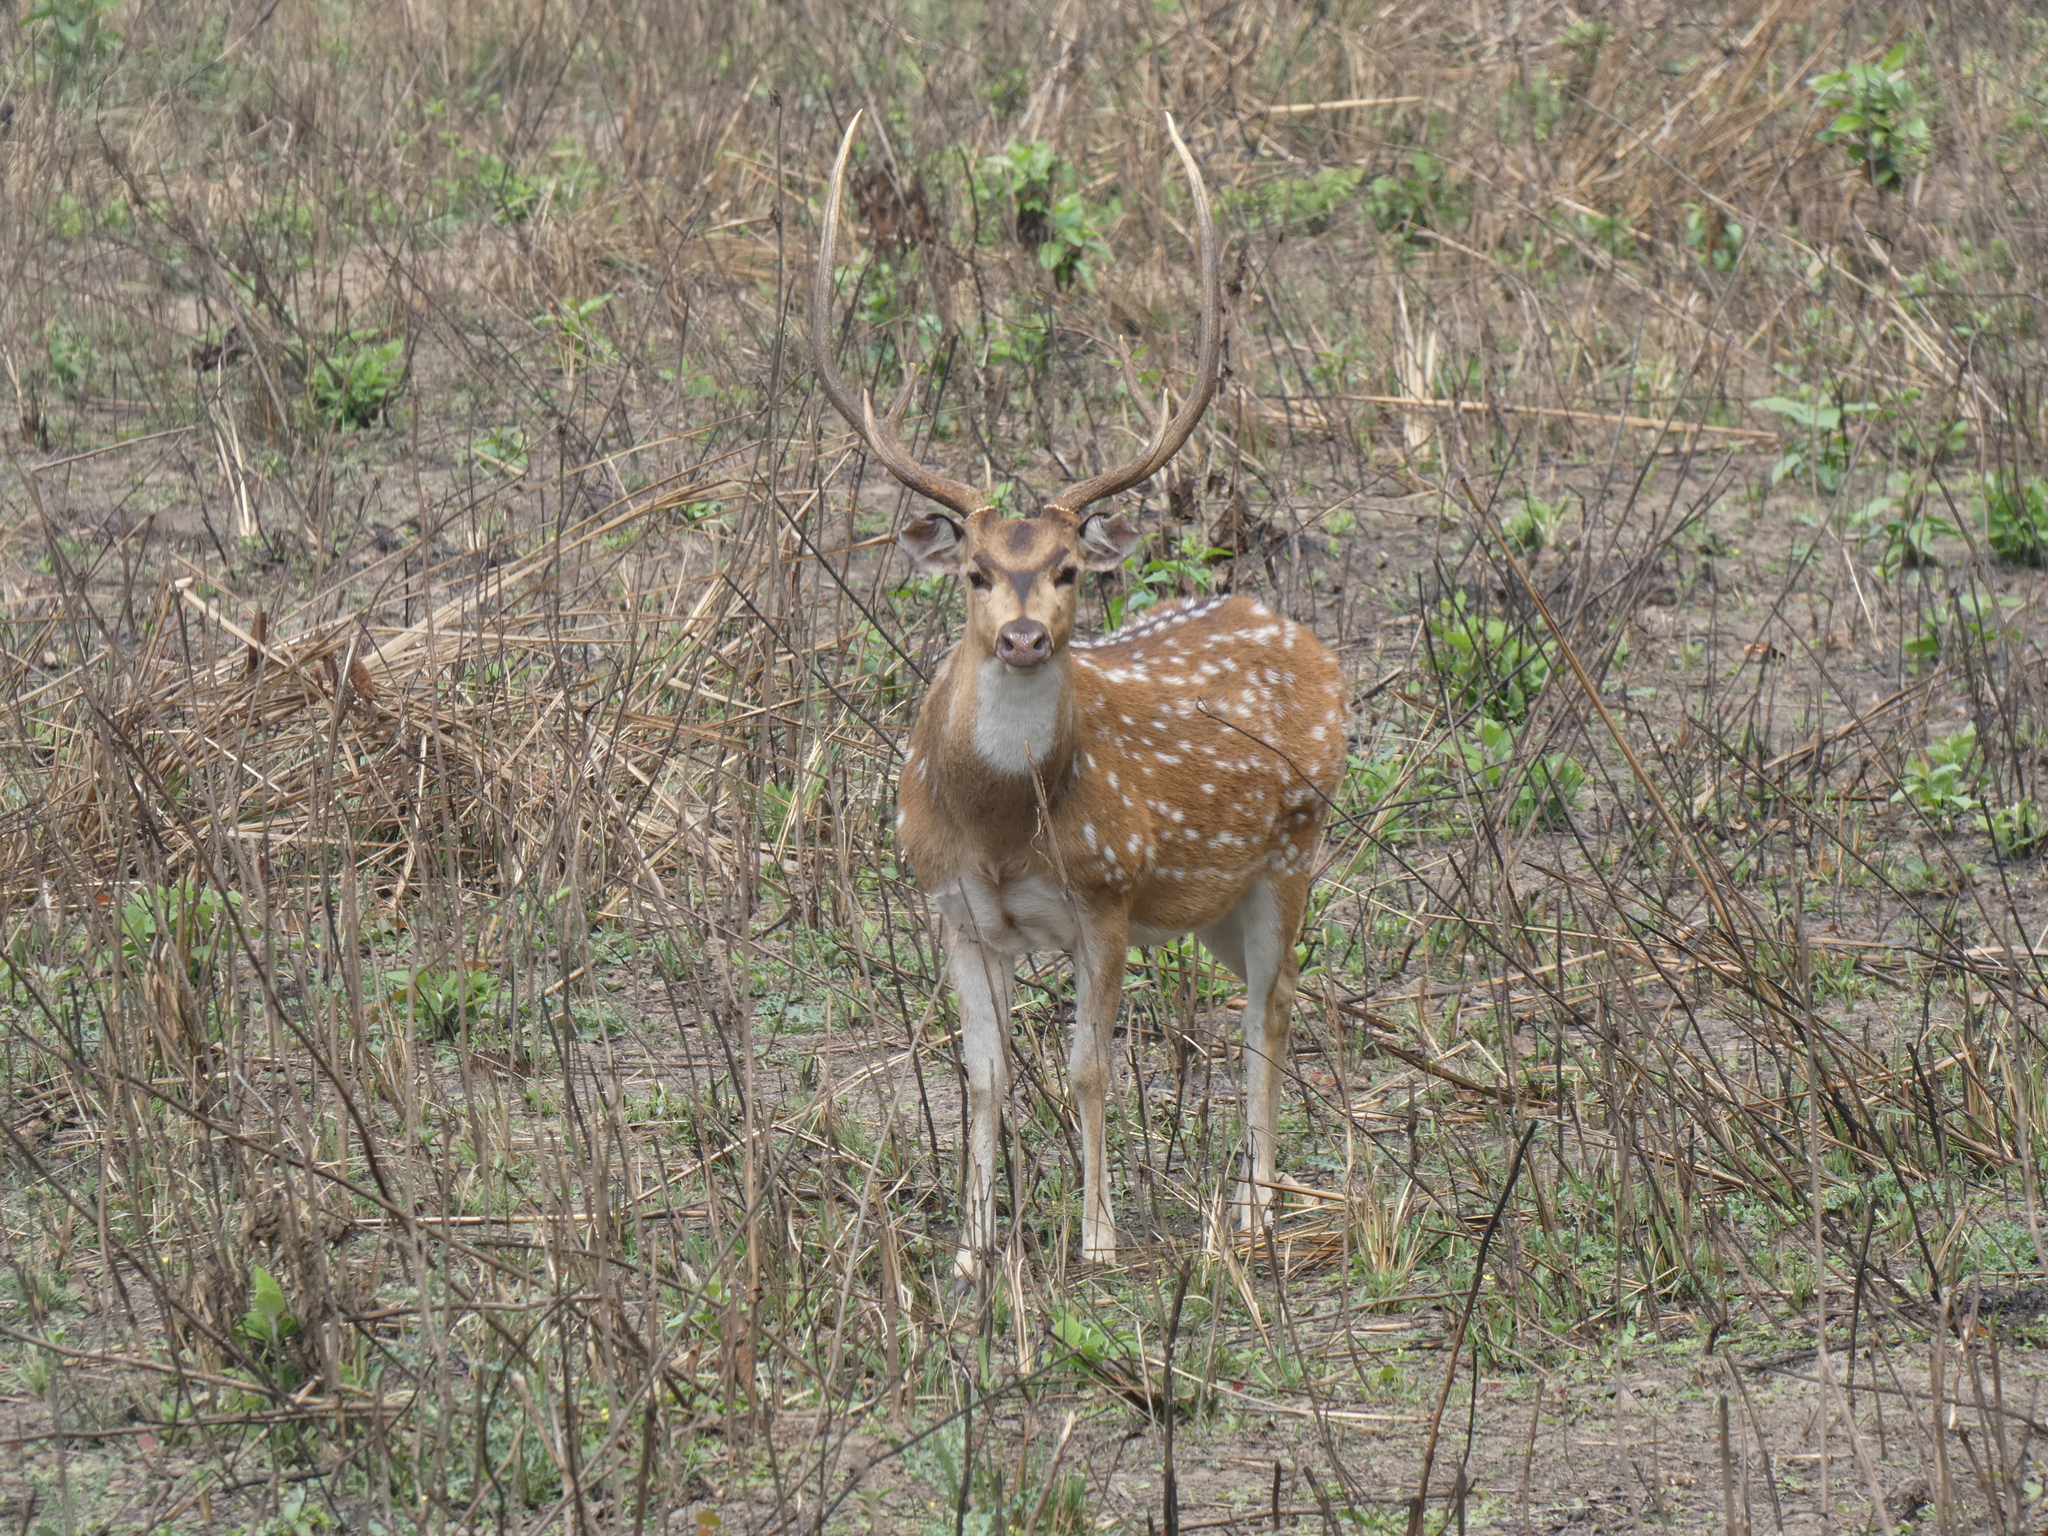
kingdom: Animalia
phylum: Chordata
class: Mammalia
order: Artiodactyla
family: Cervidae
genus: Axis
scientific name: Axis axis
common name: Chital
